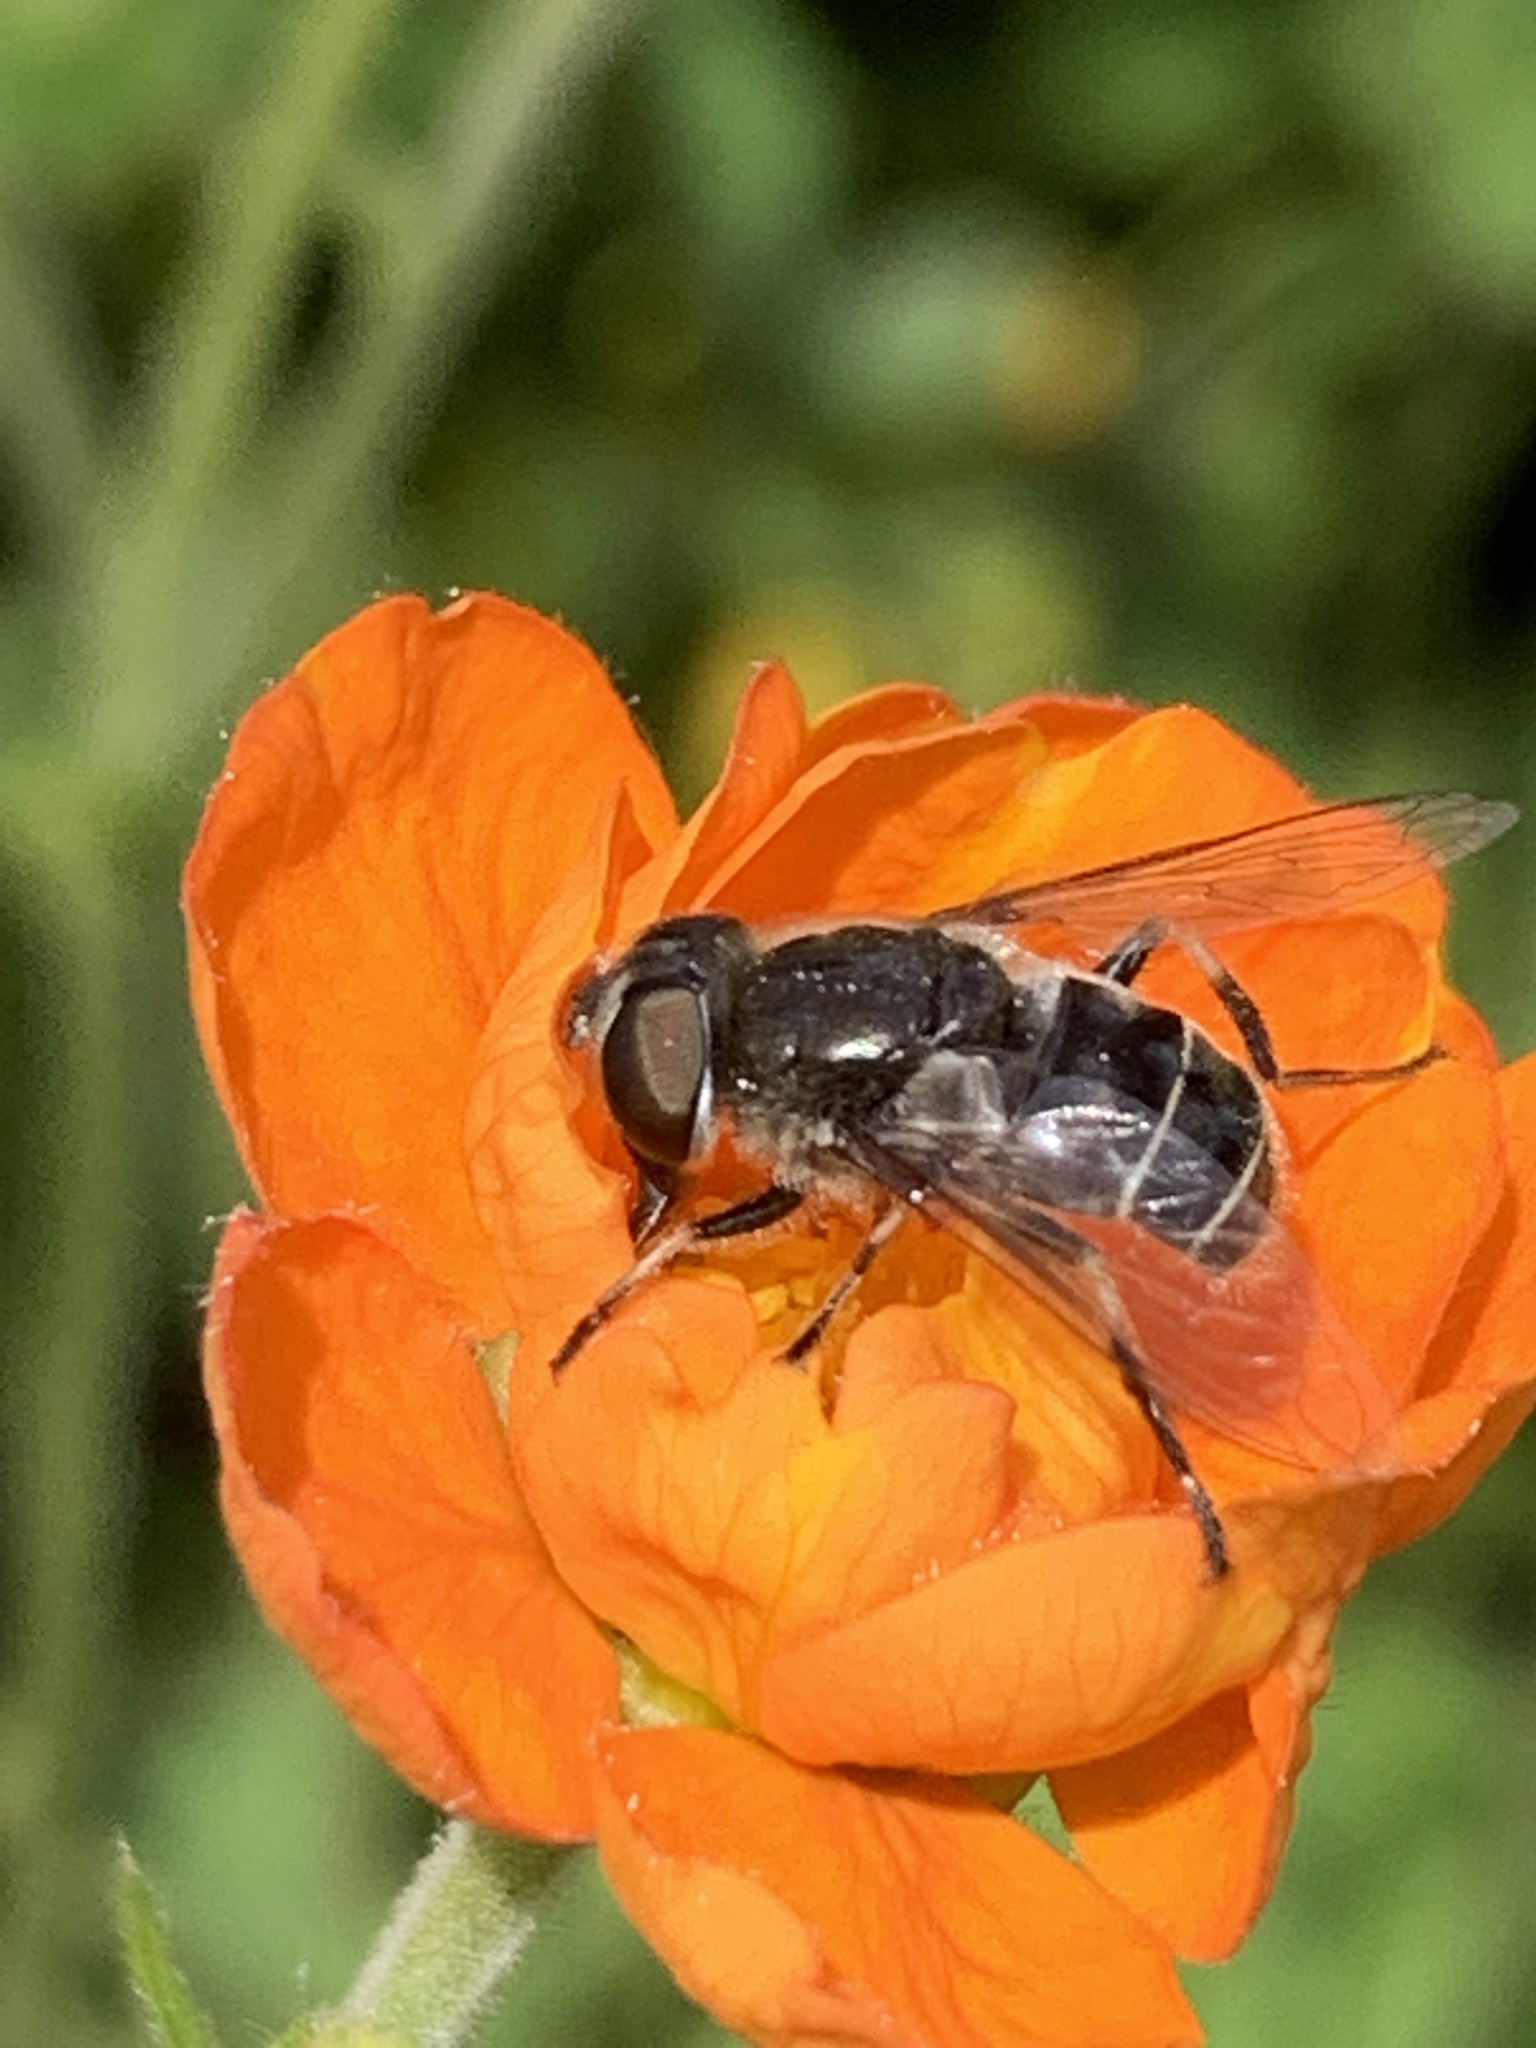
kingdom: Animalia
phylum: Arthropoda
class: Insecta
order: Diptera
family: Syrphidae
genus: Eristalis
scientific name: Eristalis dimidiata
